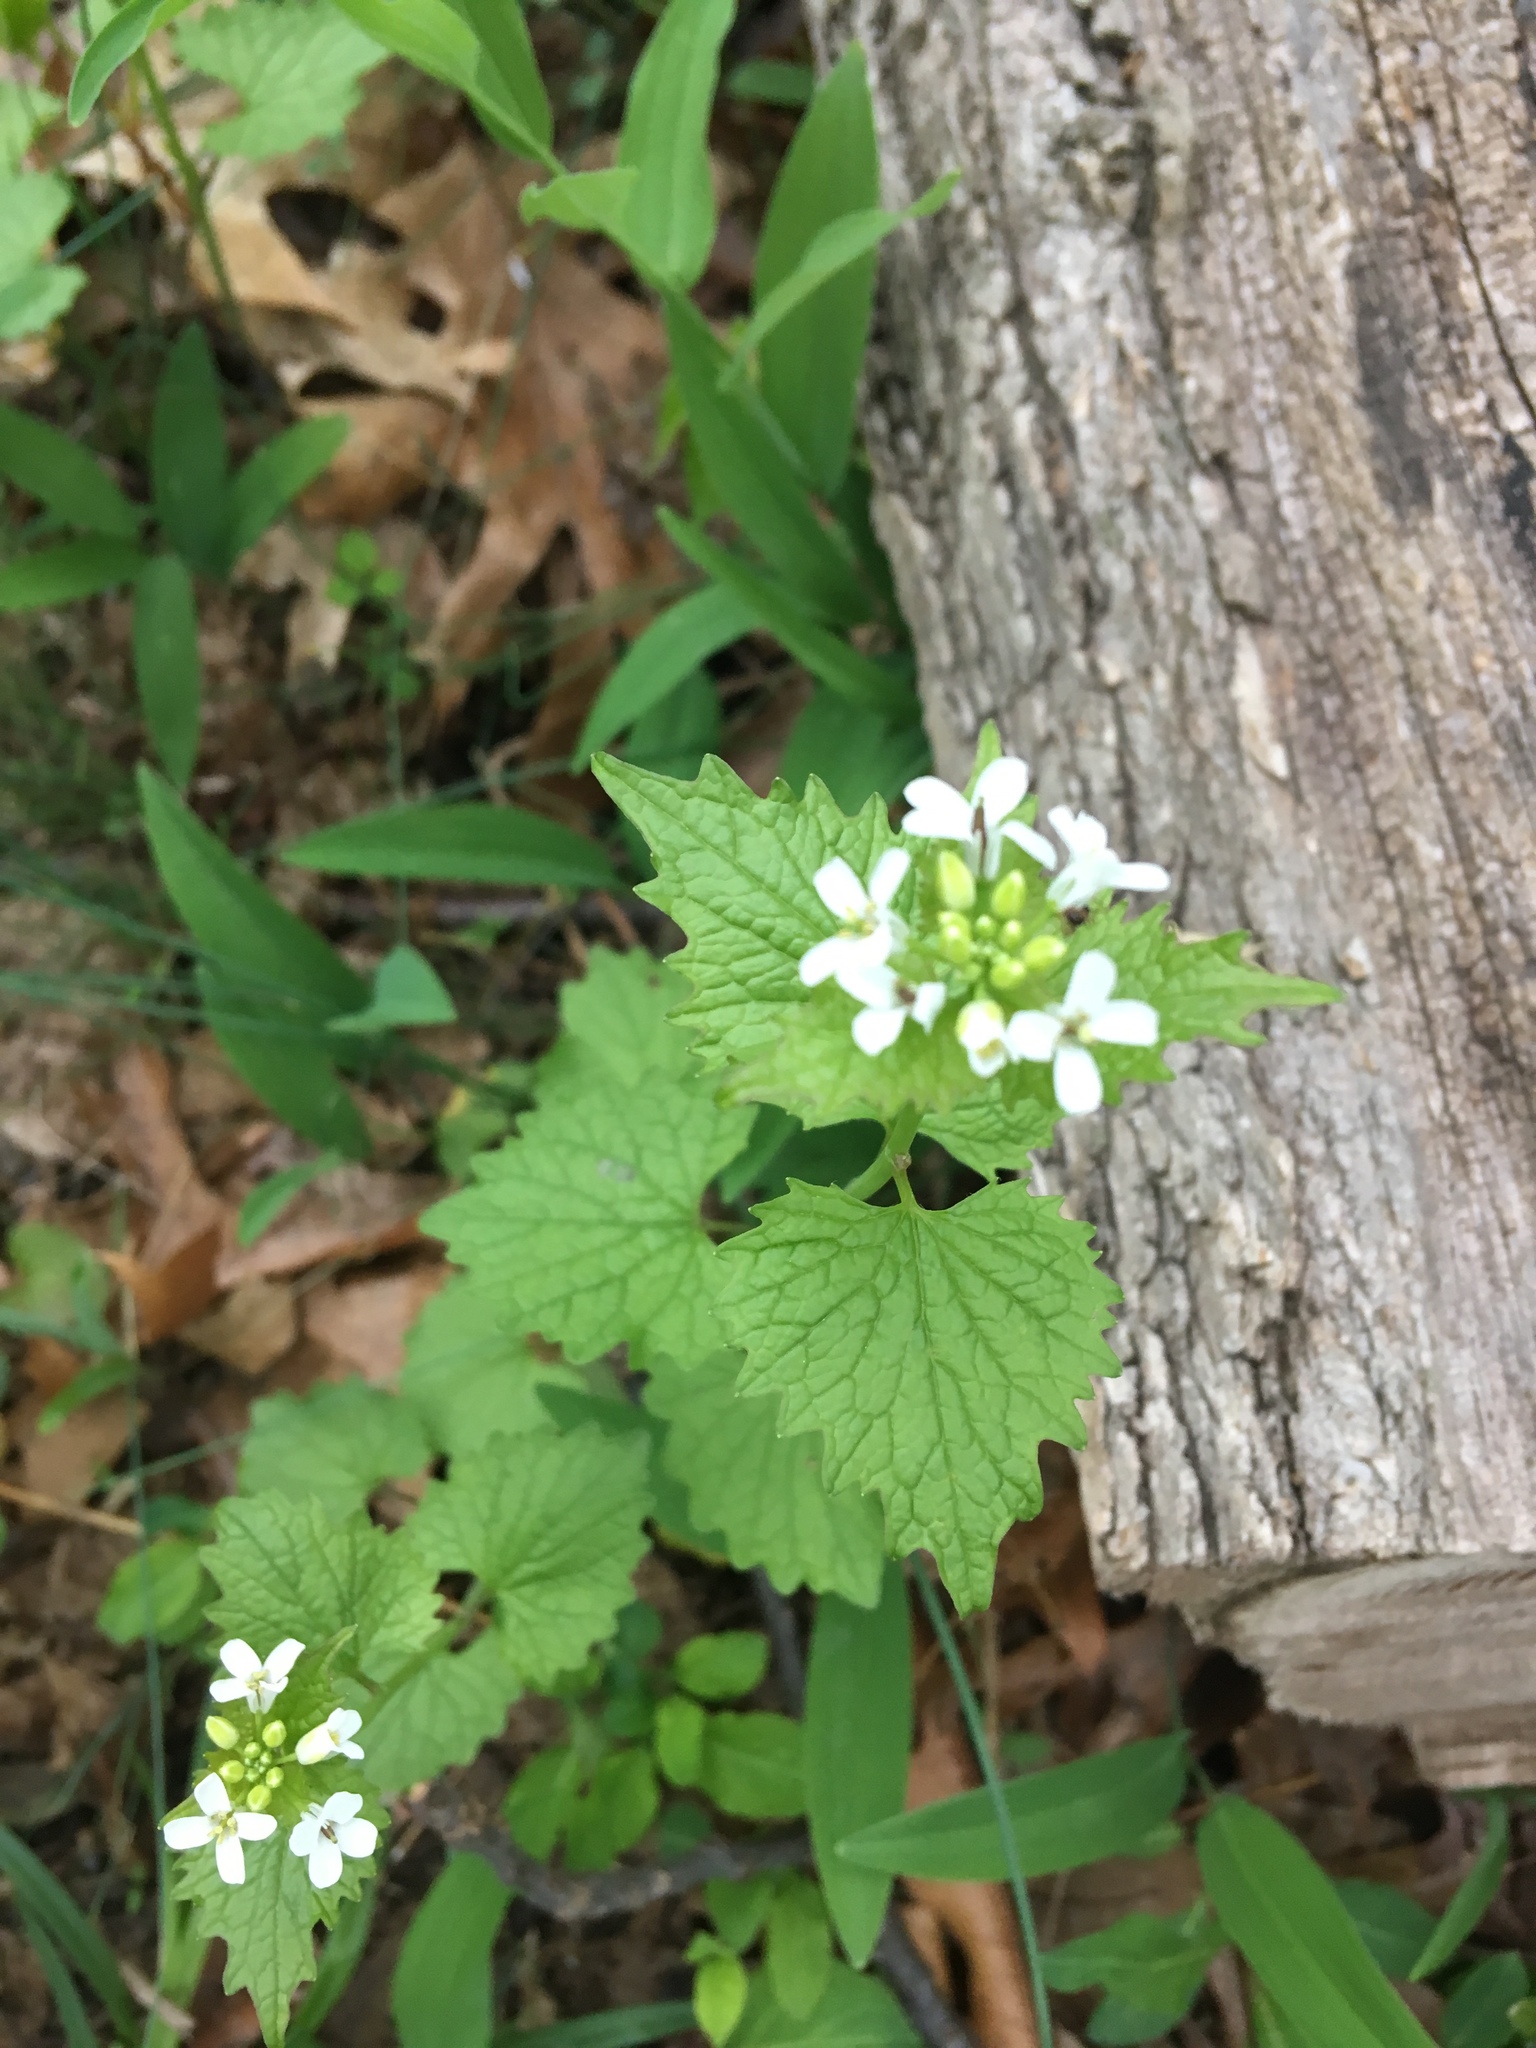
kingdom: Plantae
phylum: Tracheophyta
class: Magnoliopsida
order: Brassicales
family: Brassicaceae
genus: Alliaria
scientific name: Alliaria petiolata
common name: Garlic mustard
